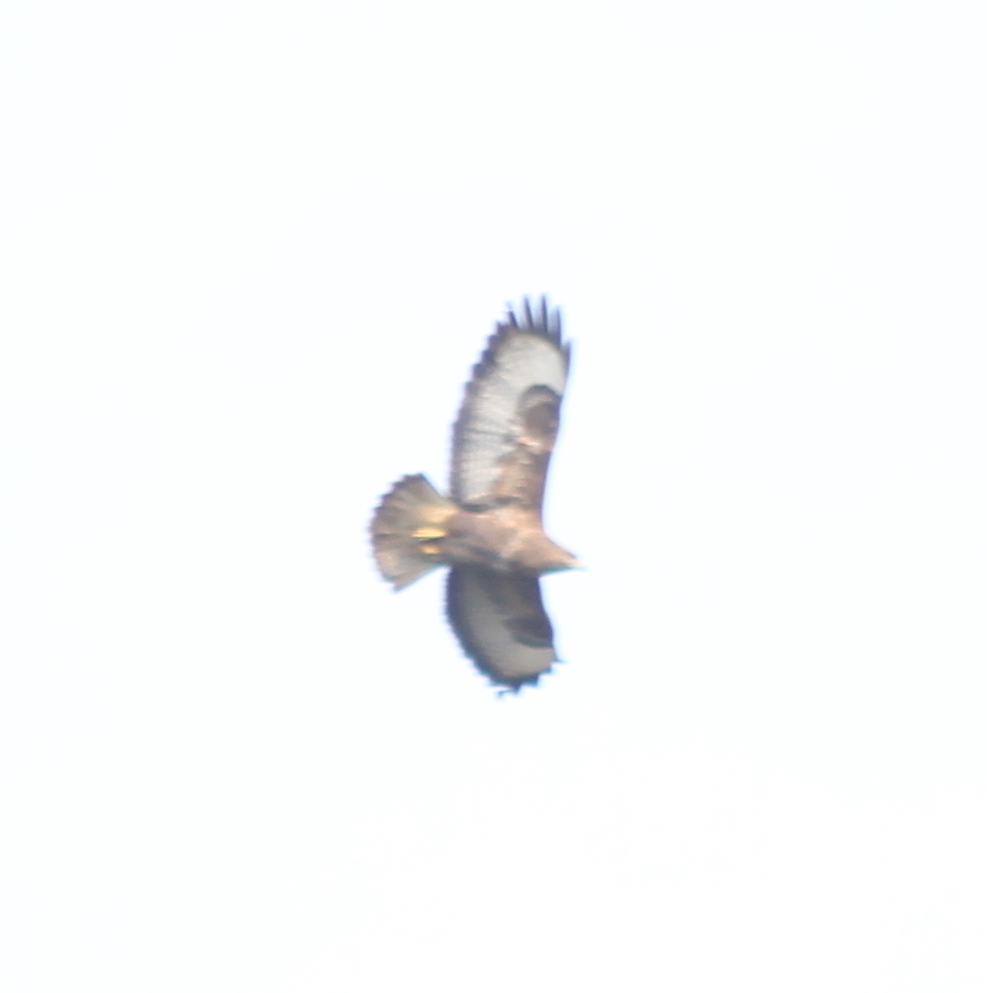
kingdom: Animalia
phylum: Chordata
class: Aves
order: Accipitriformes
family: Accipitridae
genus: Buteo
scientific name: Buteo buteo
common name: Common buzzard
